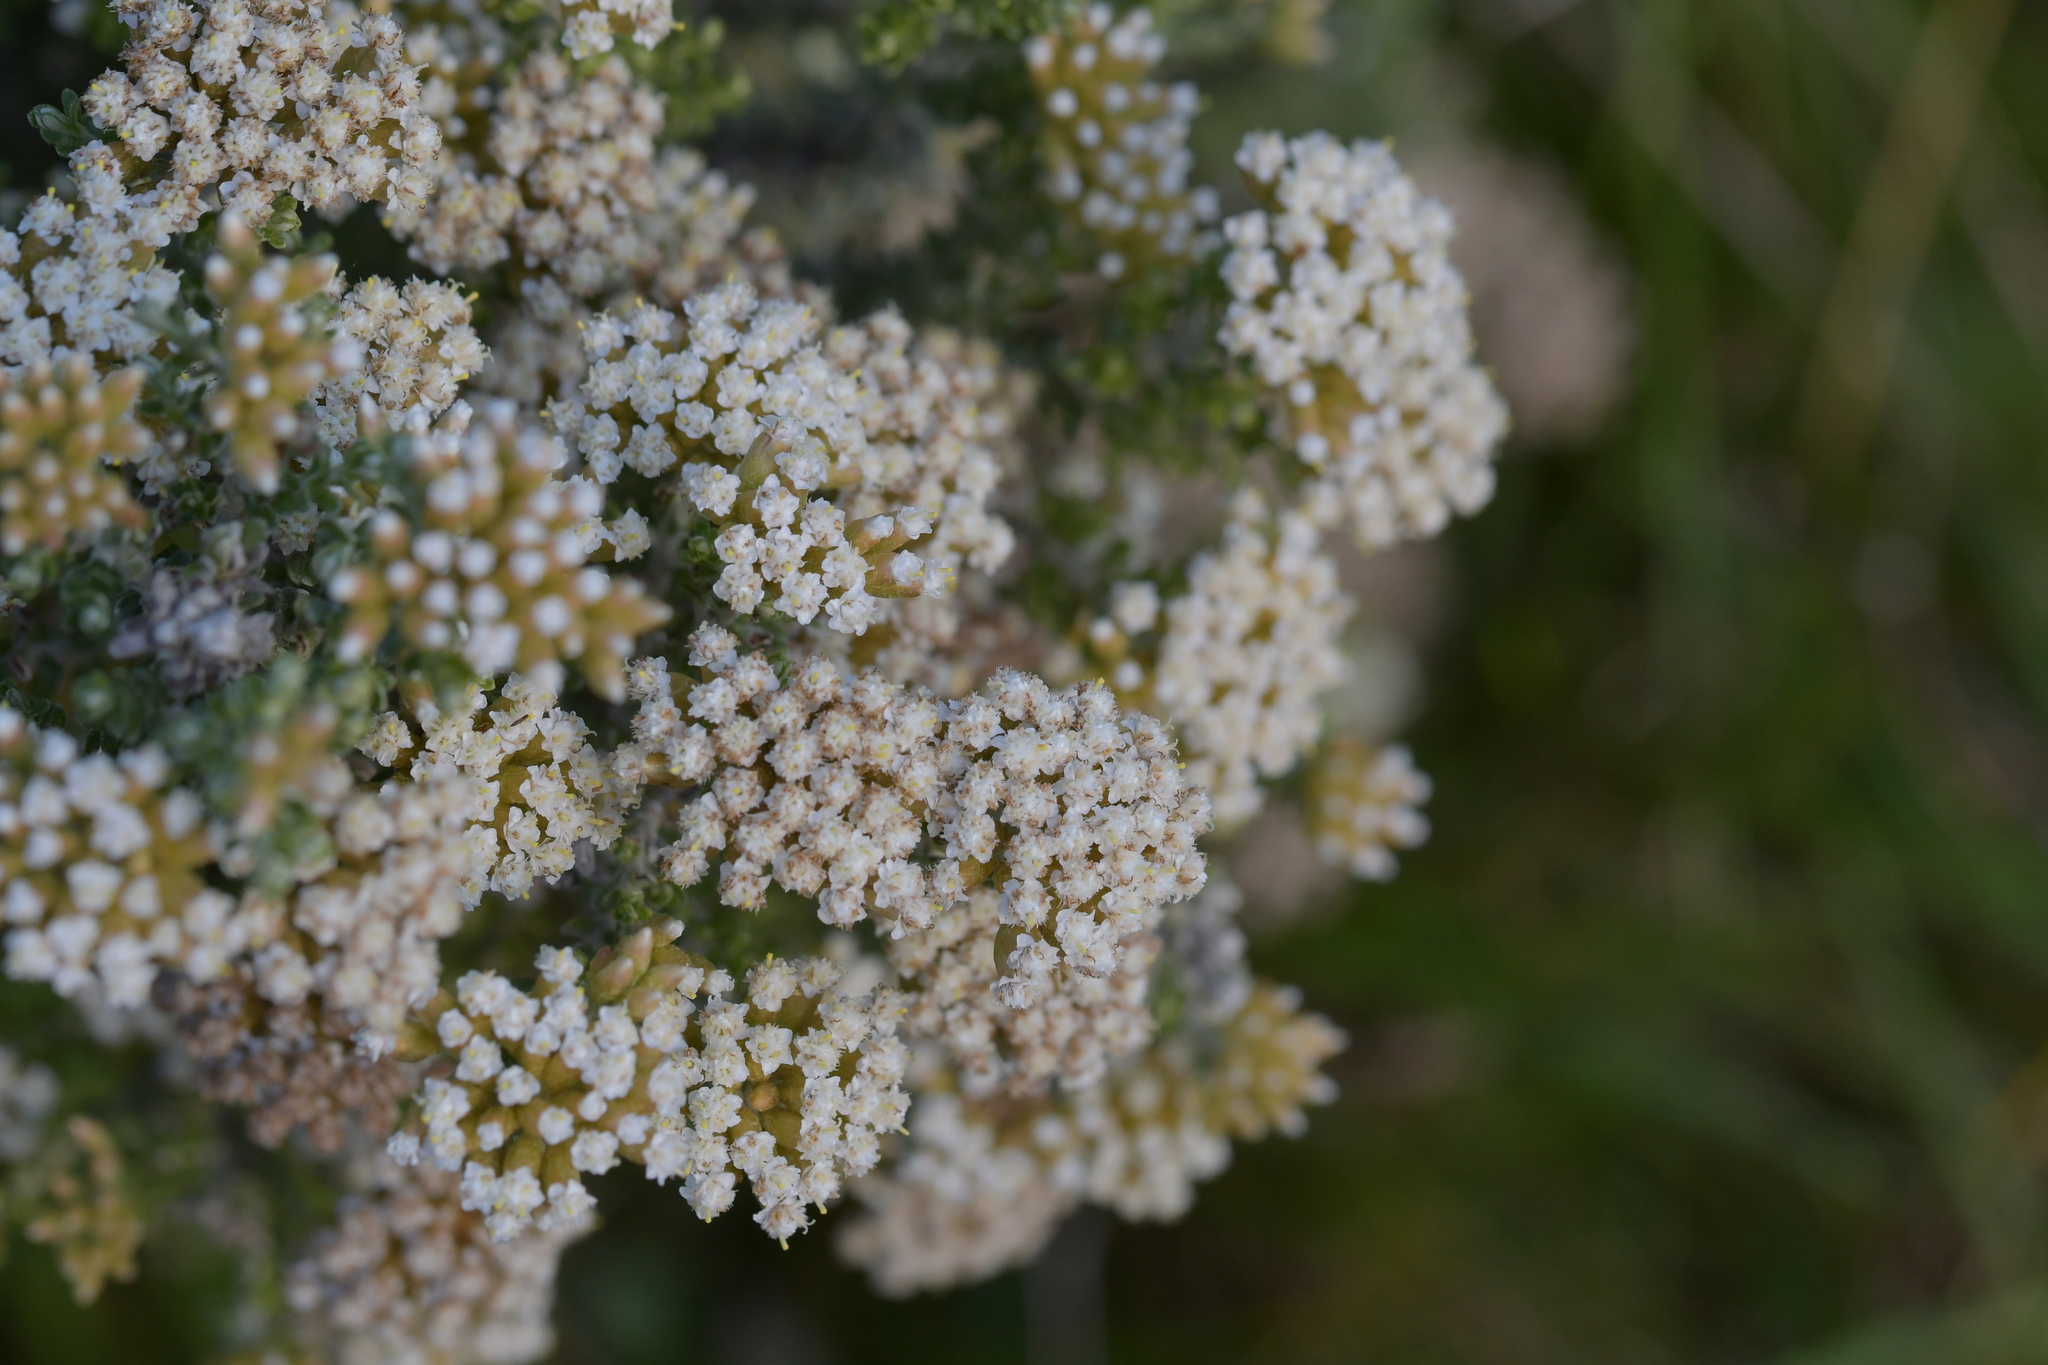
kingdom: Plantae
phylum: Tracheophyta
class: Magnoliopsida
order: Asterales
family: Asteraceae
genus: Ozothamnus
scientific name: Ozothamnus leptophyllus
